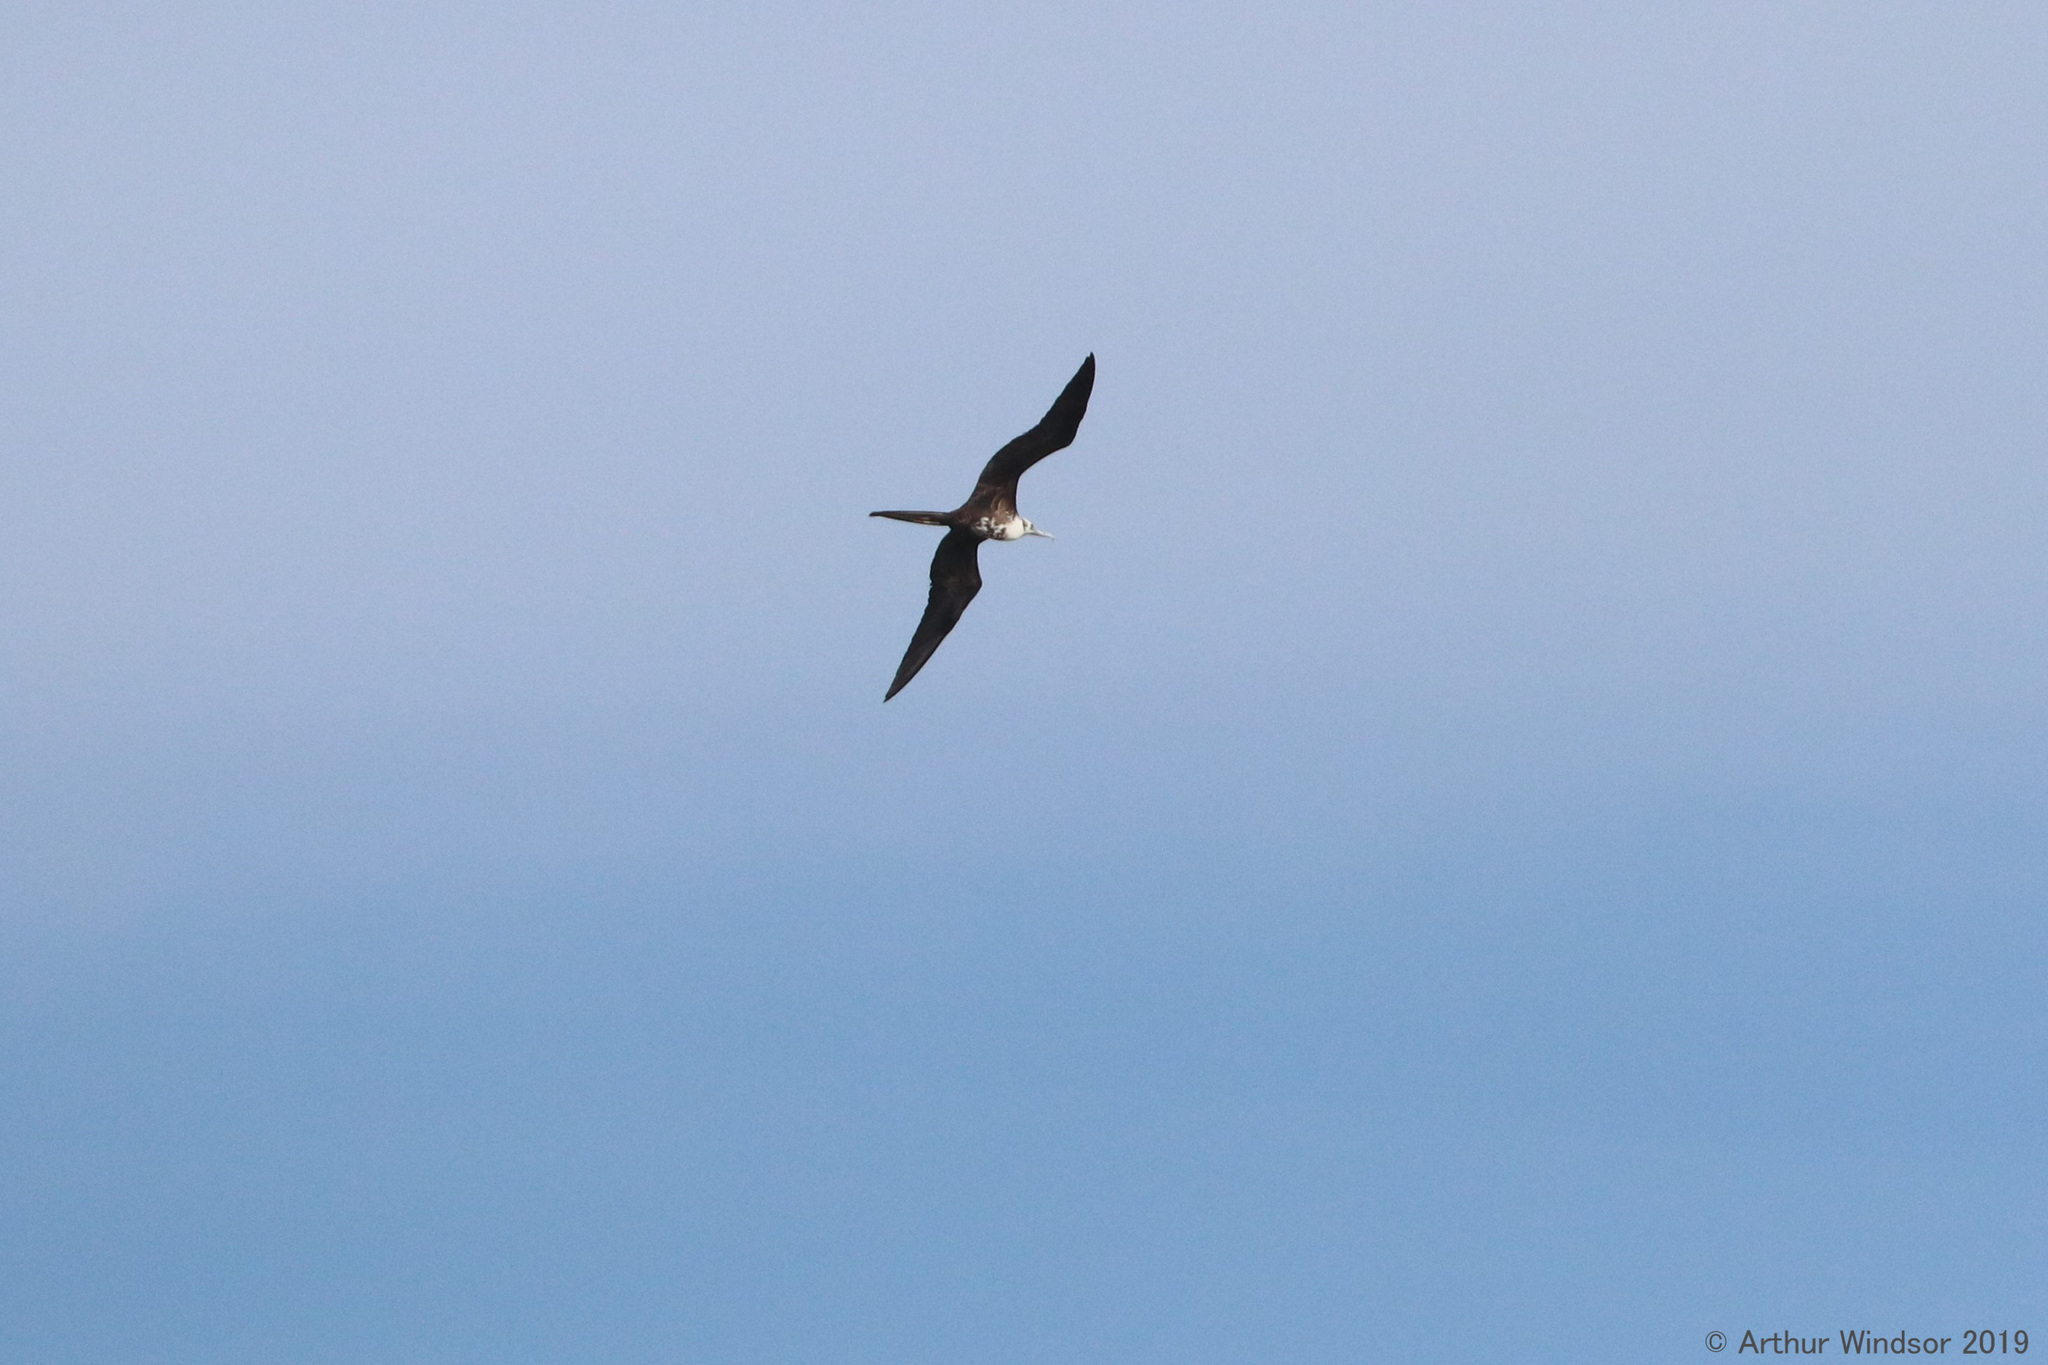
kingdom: Animalia
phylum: Chordata
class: Aves
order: Suliformes
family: Fregatidae
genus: Fregata
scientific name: Fregata magnificens
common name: Magnificent frigatebird
